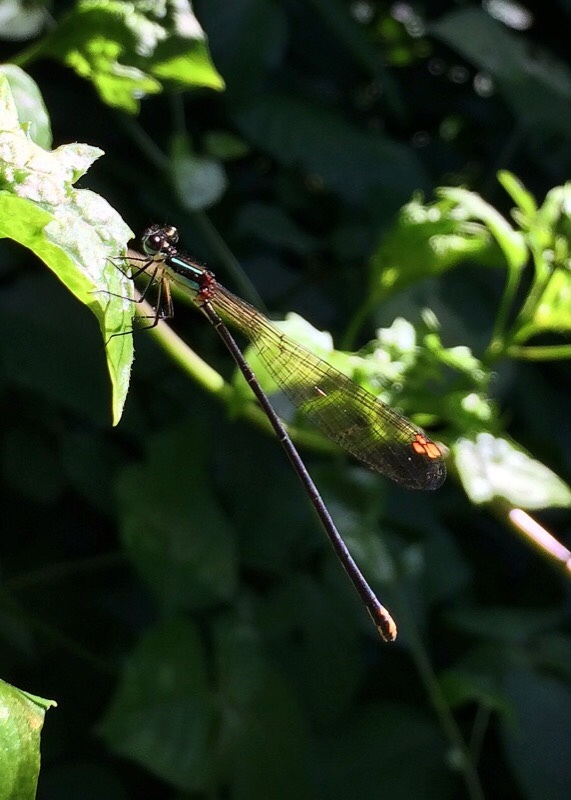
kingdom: Animalia
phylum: Arthropoda
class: Insecta
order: Odonata
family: Platycnemididae
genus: Allocnemis
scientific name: Allocnemis leucosticta
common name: Goldtail
